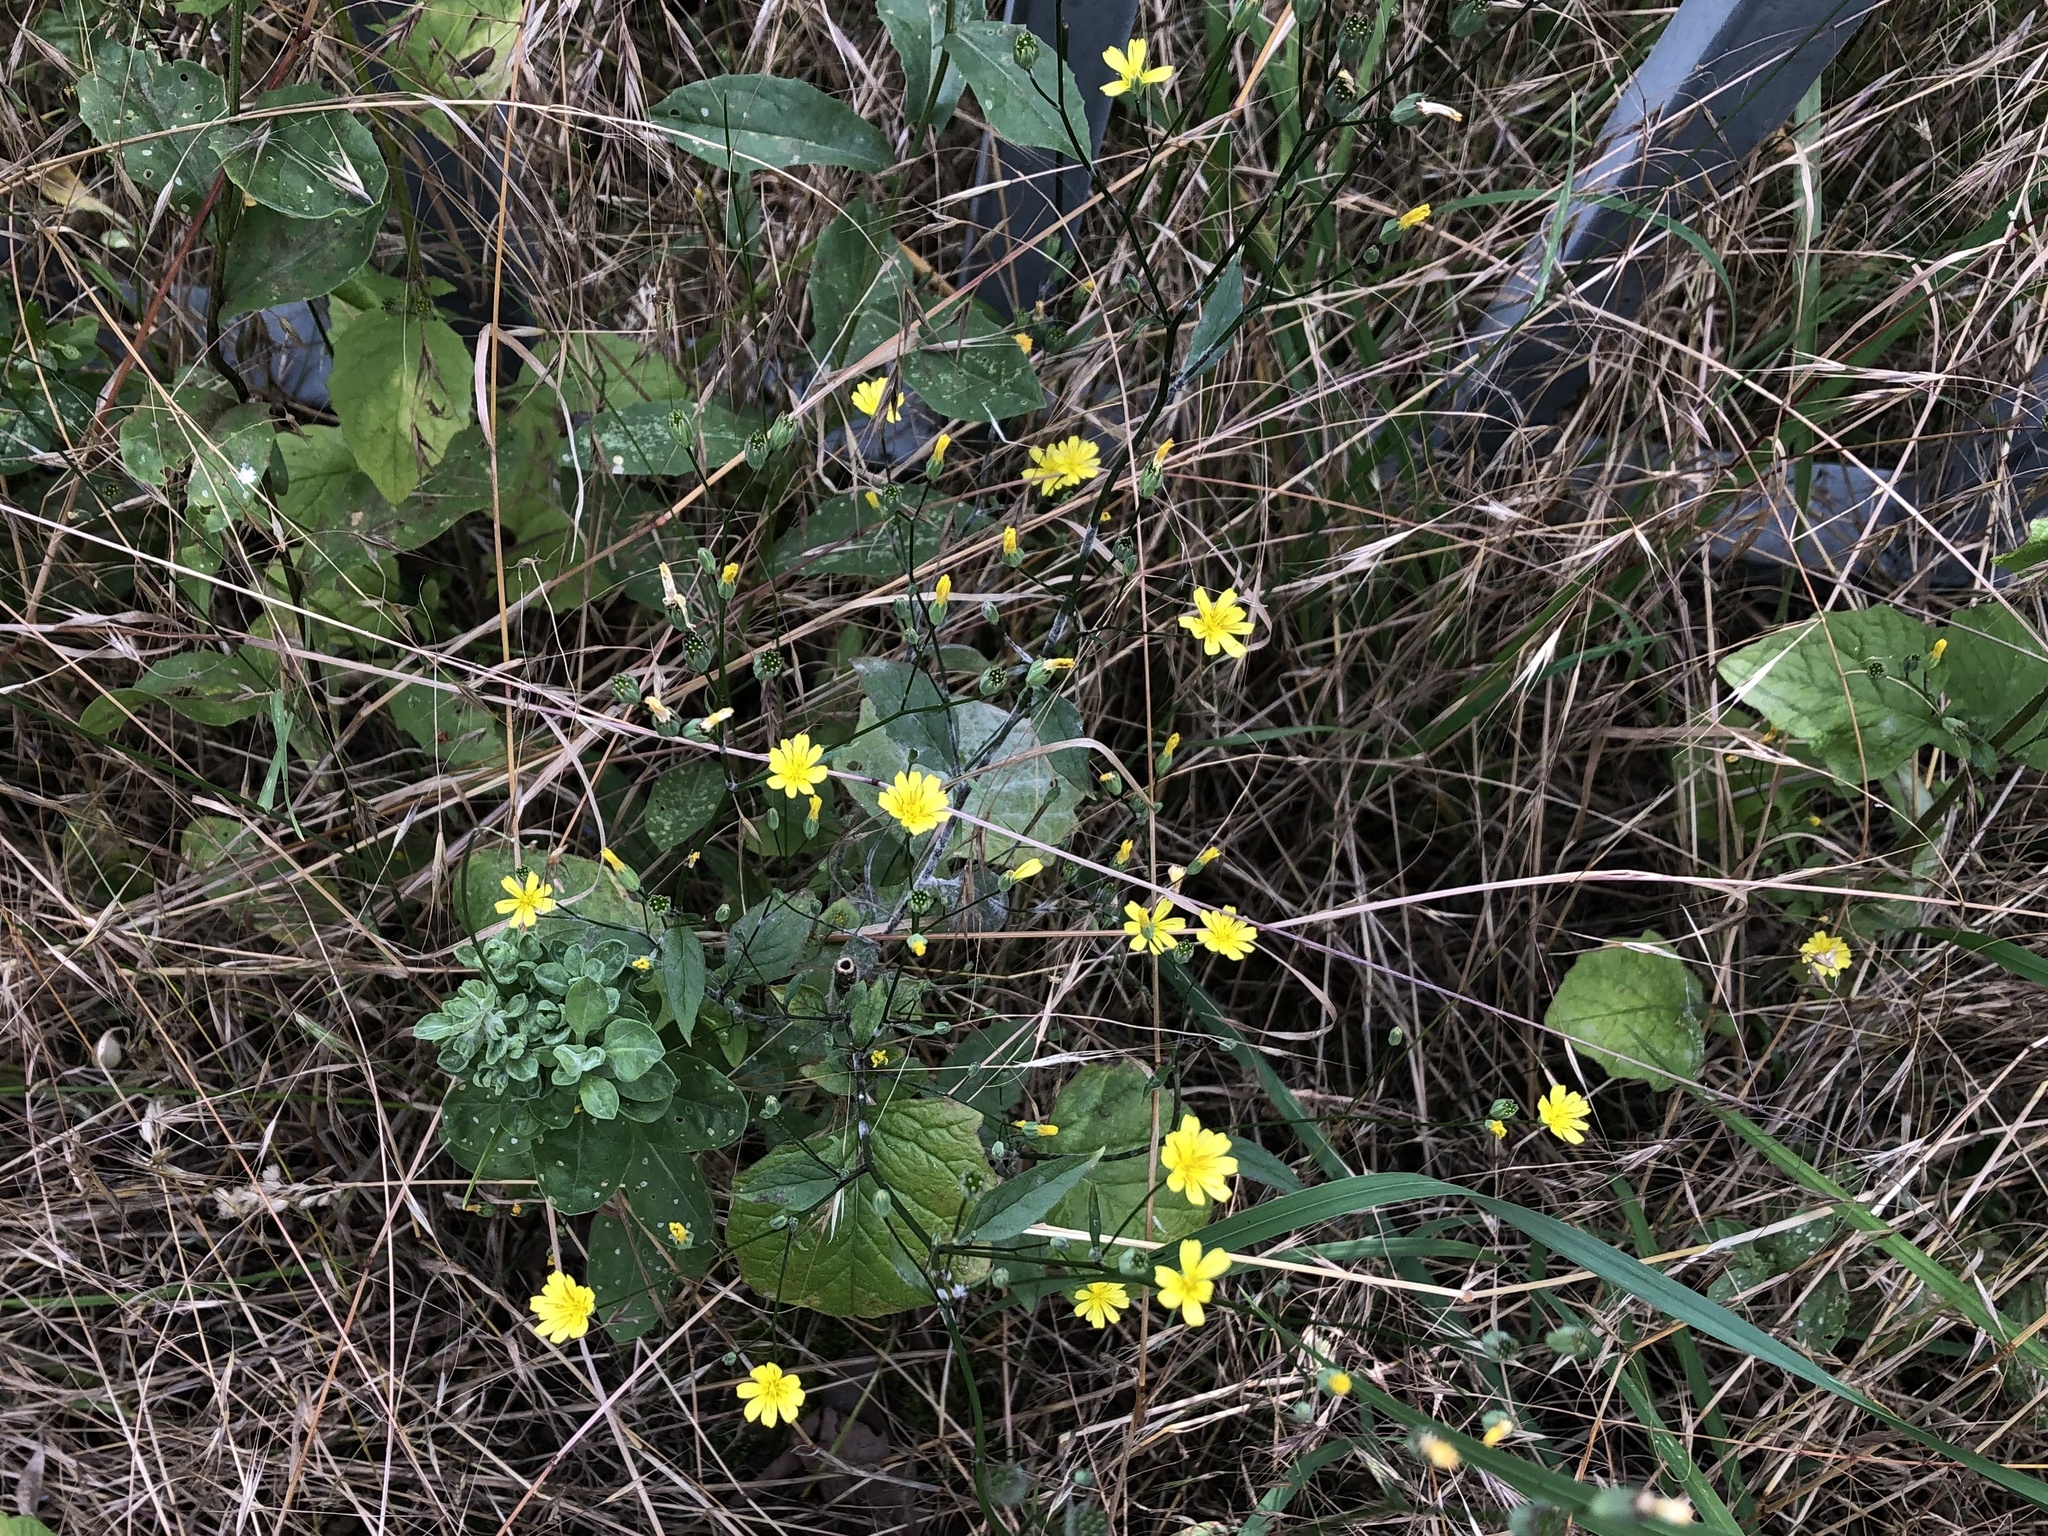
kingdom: Plantae
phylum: Tracheophyta
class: Magnoliopsida
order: Asterales
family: Asteraceae
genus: Lapsana
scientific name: Lapsana communis
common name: Nipplewort
